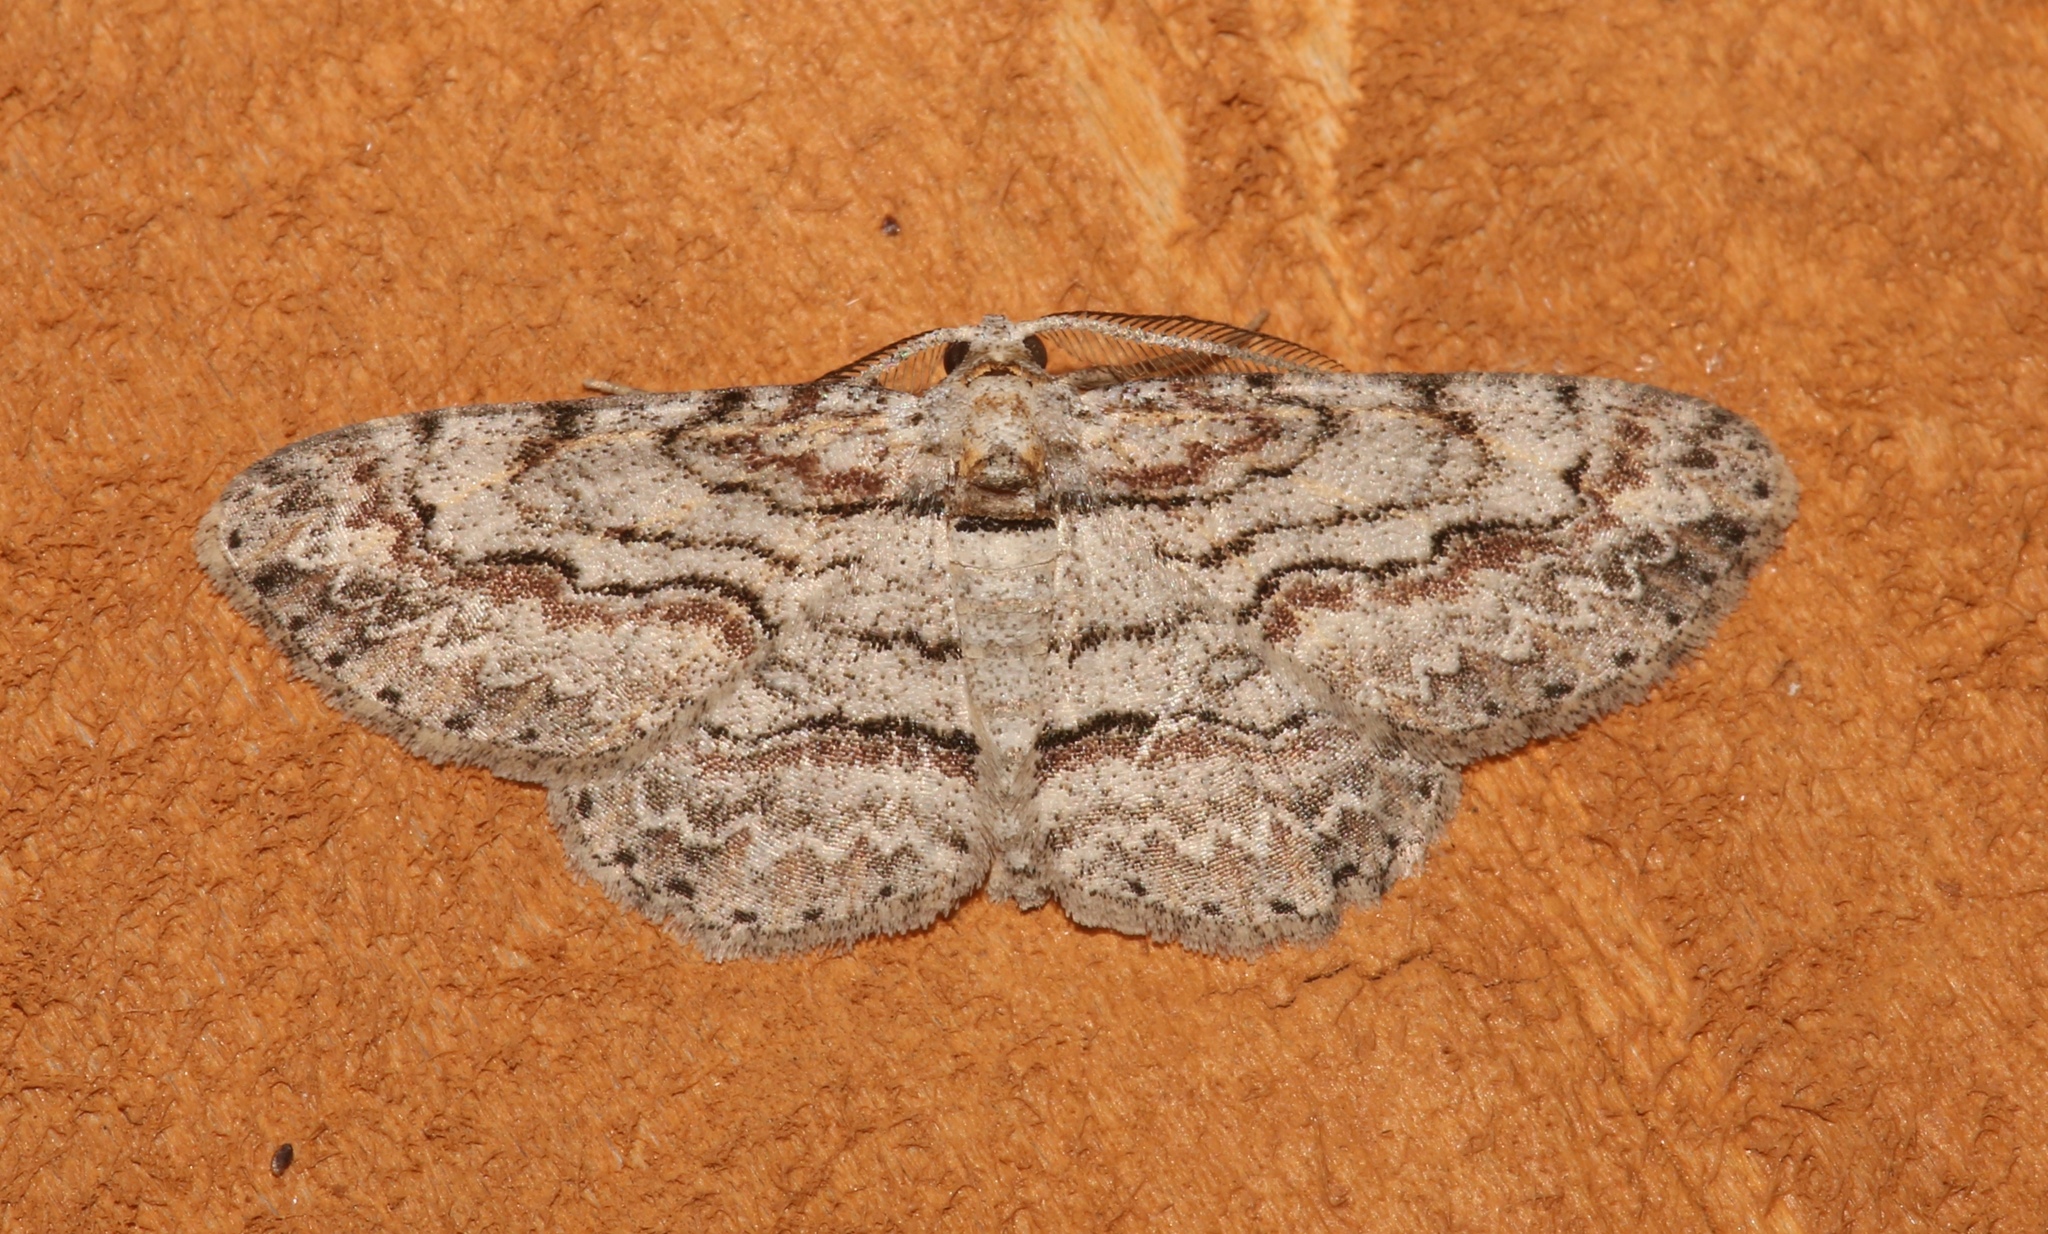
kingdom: Animalia
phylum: Arthropoda
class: Insecta
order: Lepidoptera
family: Geometridae
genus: Iridopsis
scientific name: Iridopsis defectaria
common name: Brown-shaded gray
